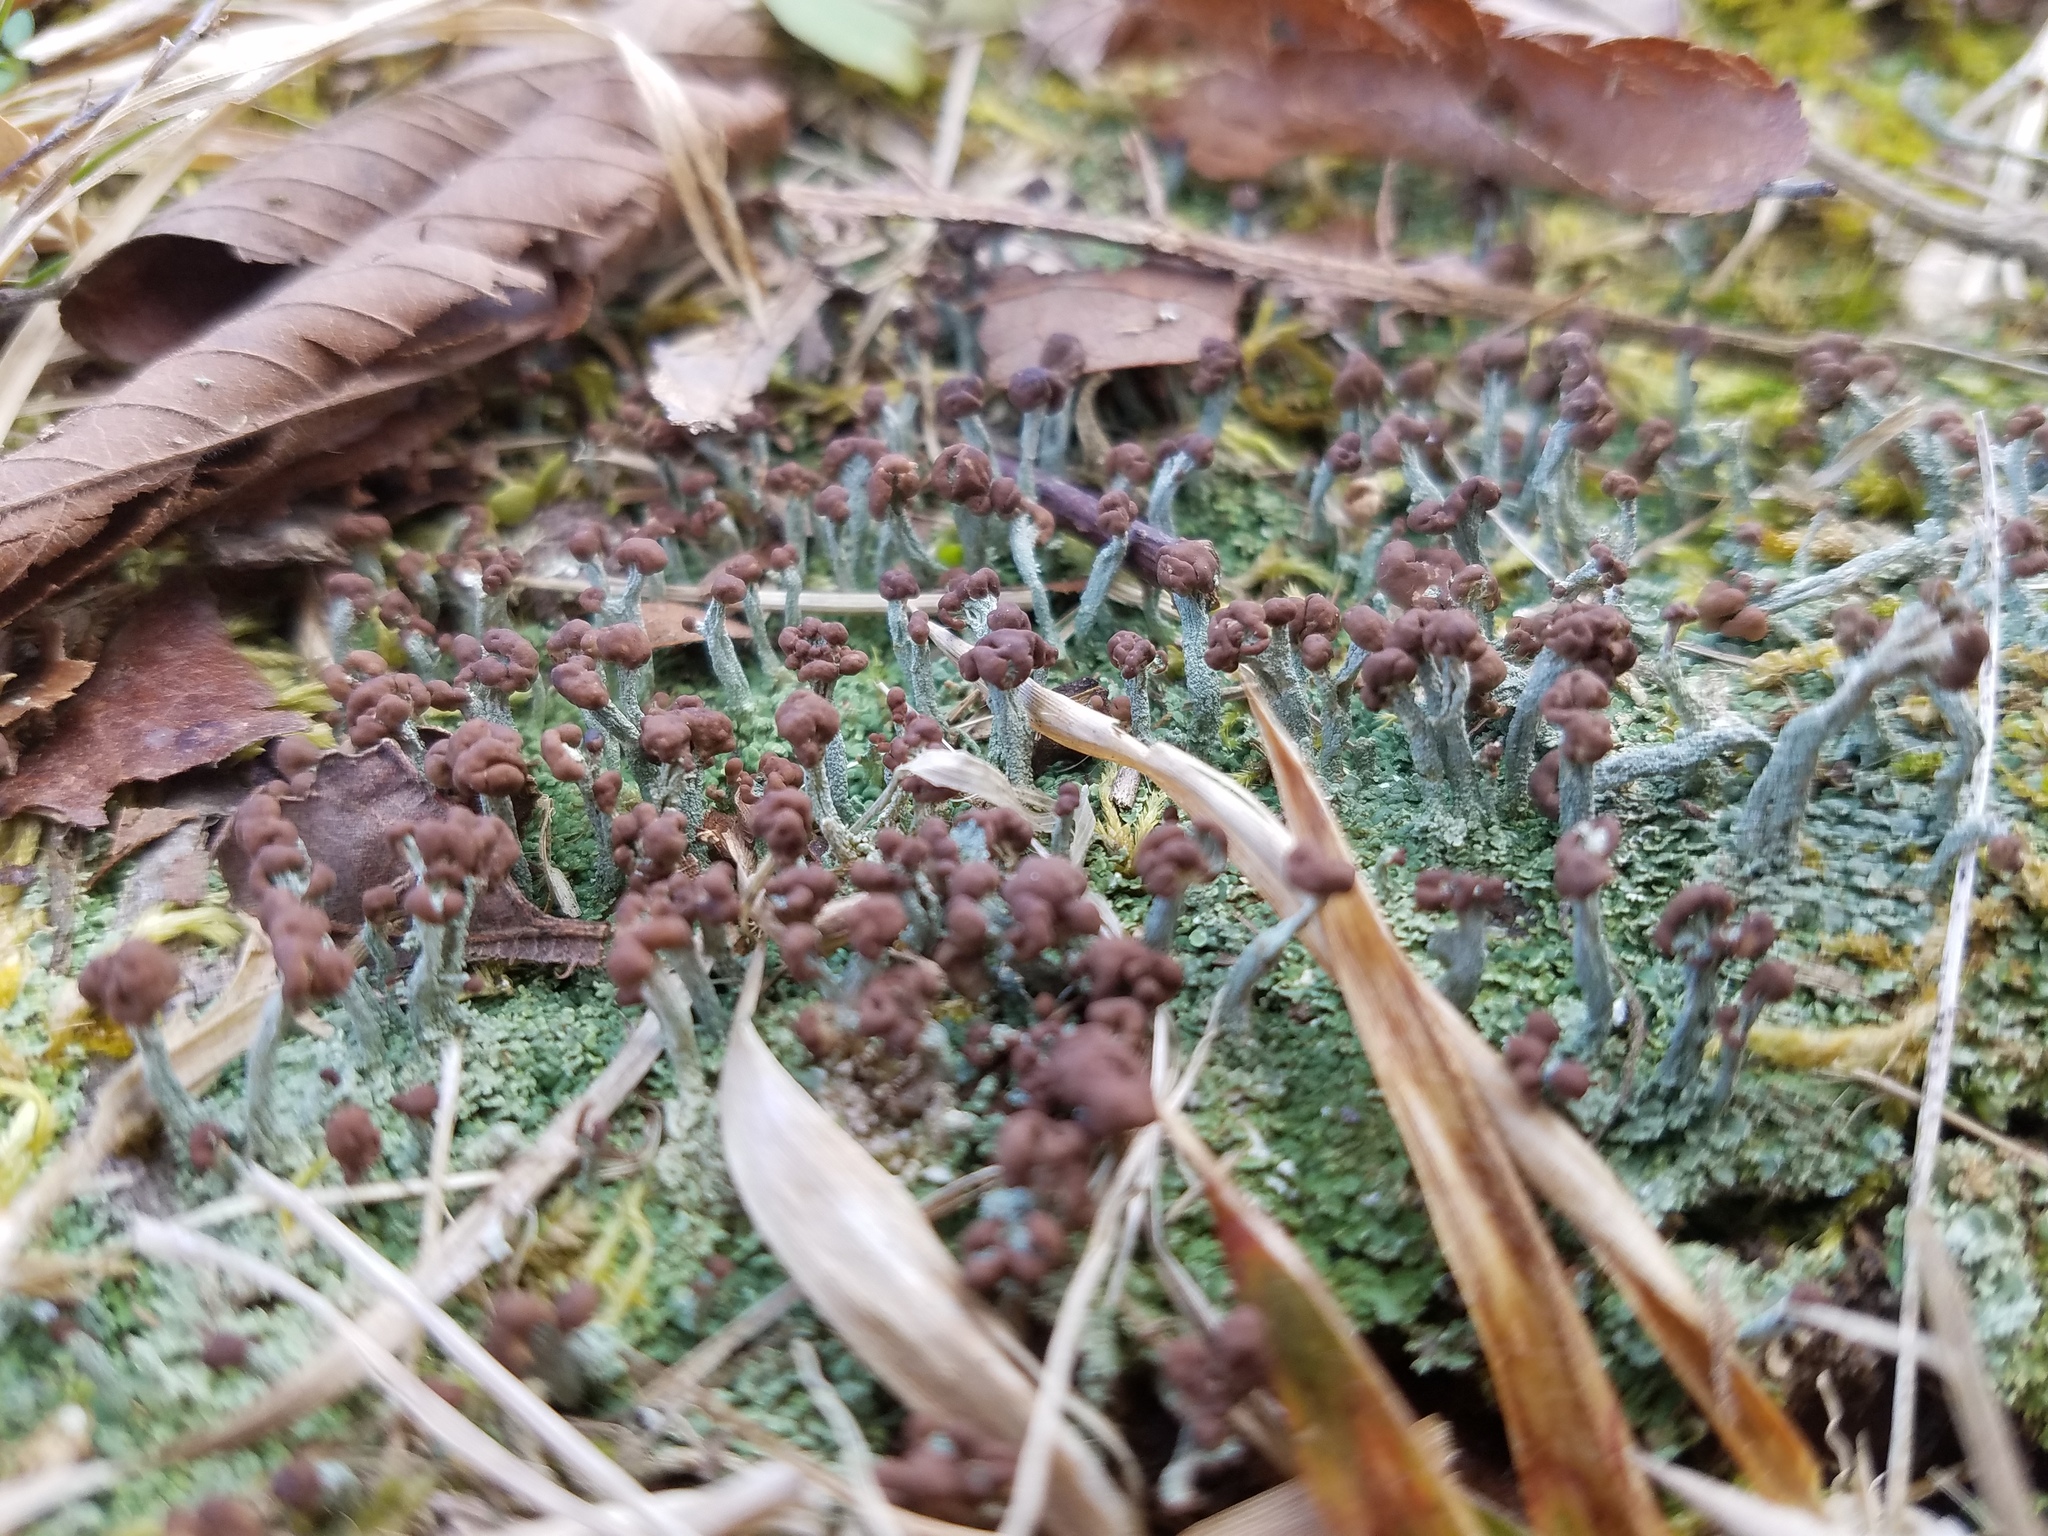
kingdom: Fungi
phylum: Ascomycota
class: Lecanoromycetes
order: Lecanorales
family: Cladoniaceae
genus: Cladonia
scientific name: Cladonia peziziformis
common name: Cup lichen
